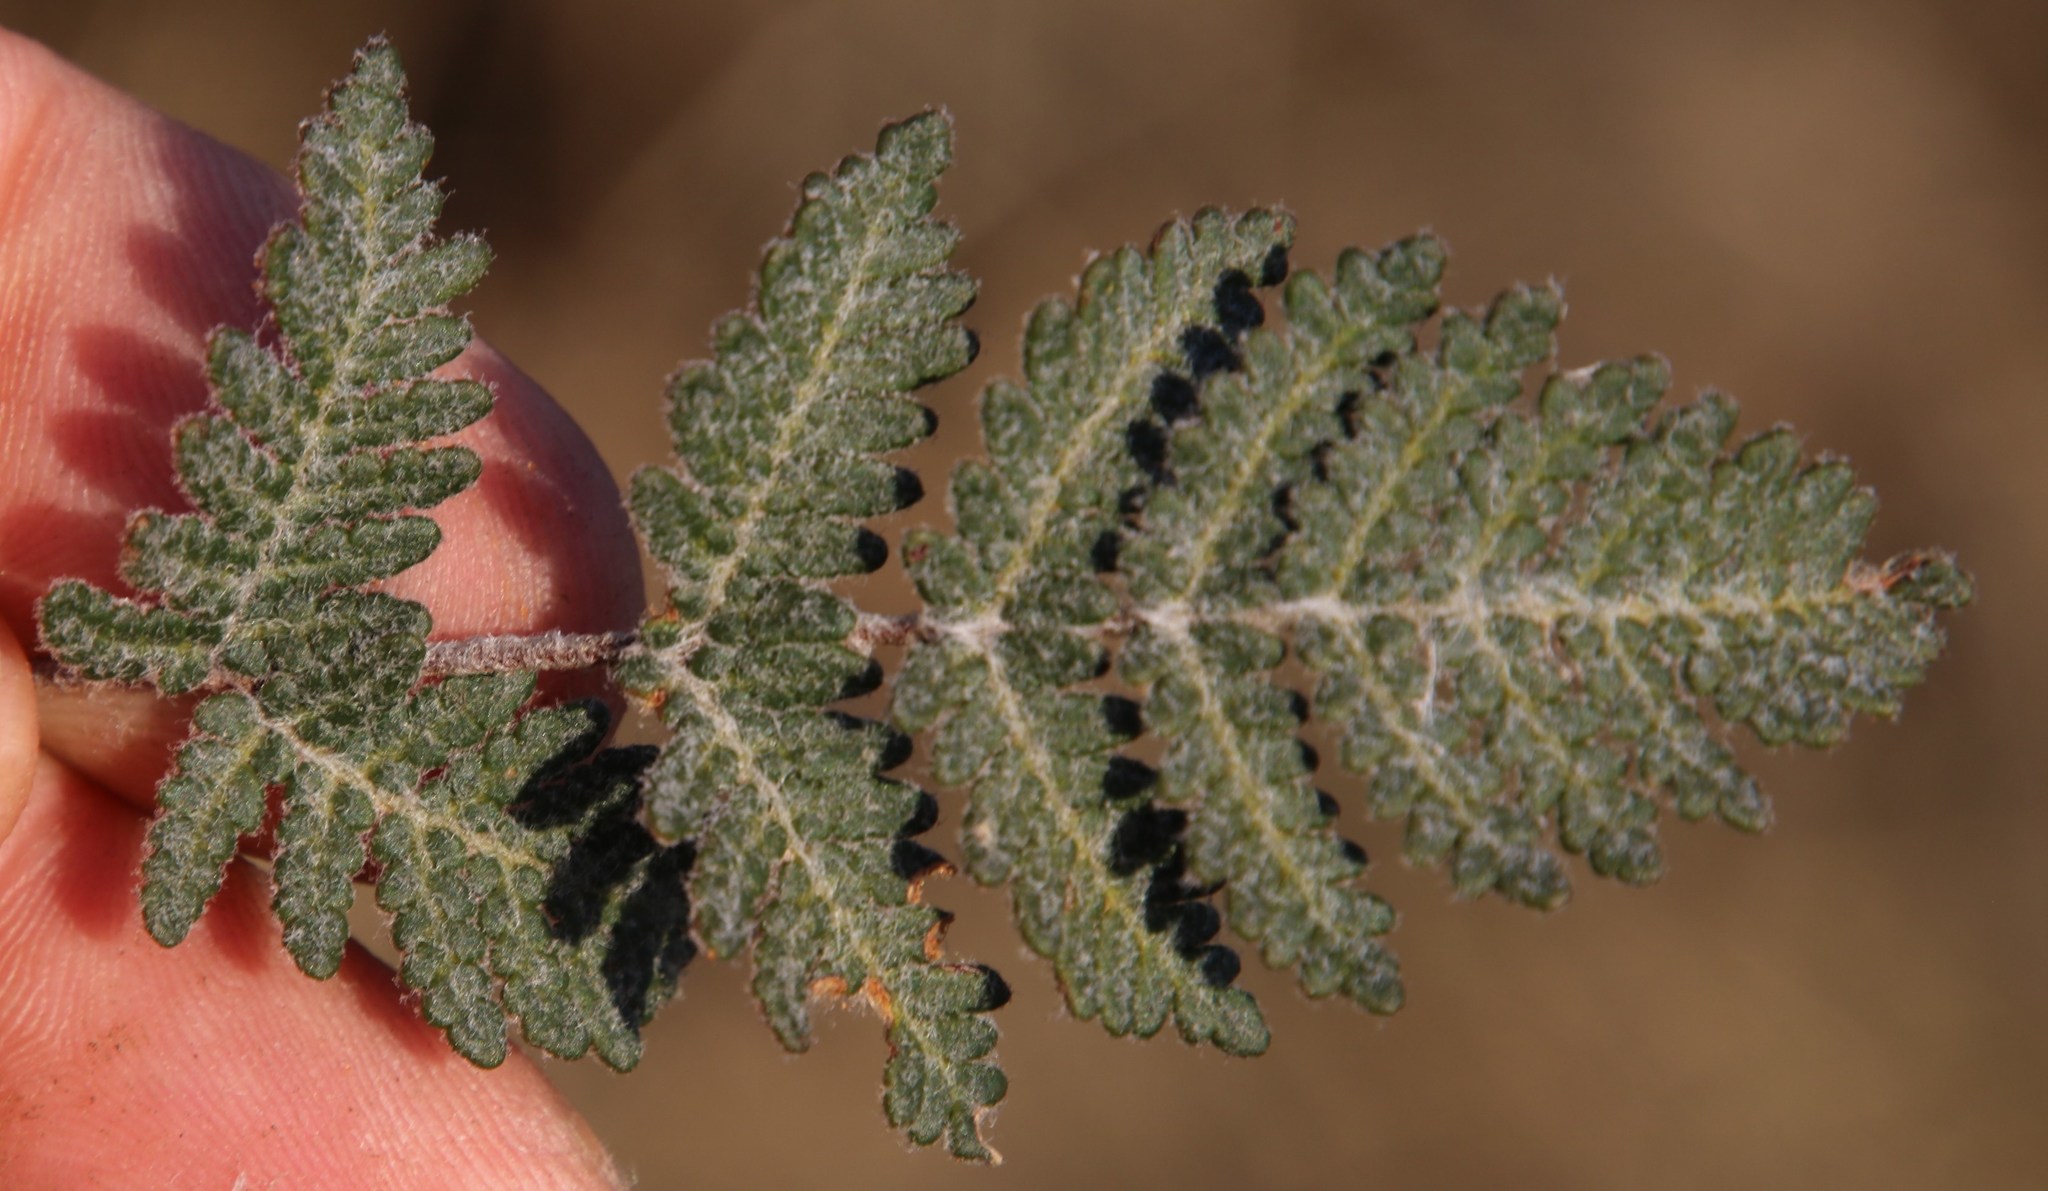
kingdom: Plantae
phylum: Tracheophyta
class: Polypodiopsida
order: Polypodiales
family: Pteridaceae
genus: Cheilanthes
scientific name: Cheilanthes eckloniana
